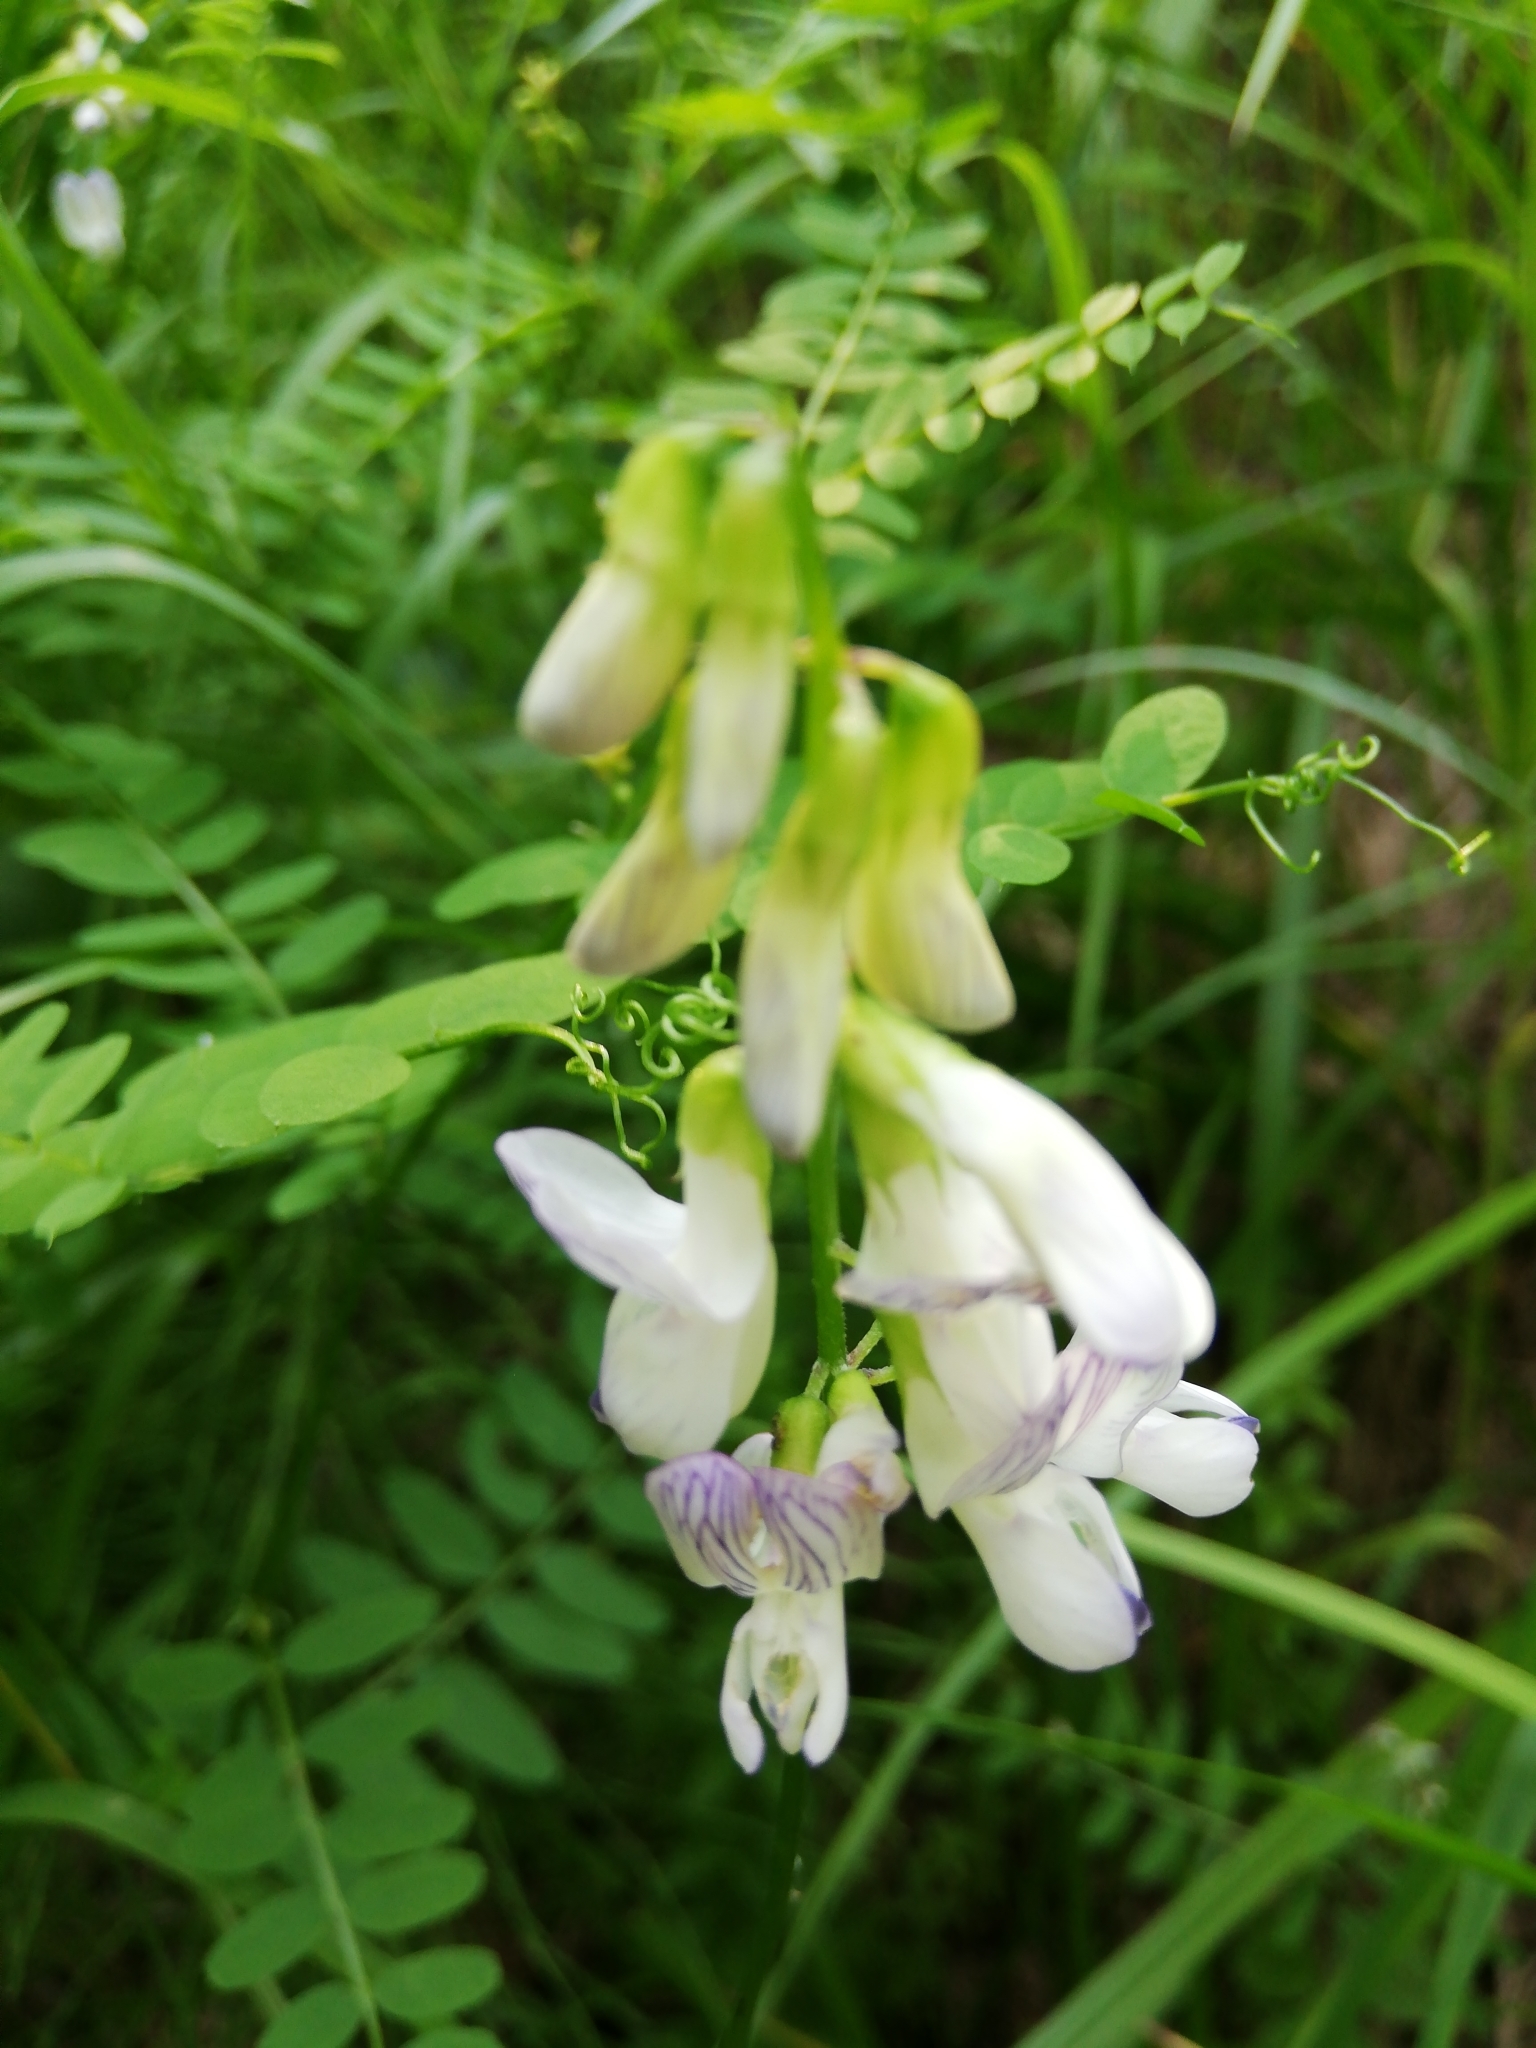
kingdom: Plantae
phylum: Tracheophyta
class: Magnoliopsida
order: Fabales
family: Fabaceae
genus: Vicia
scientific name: Vicia sylvatica
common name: Wood vetch
